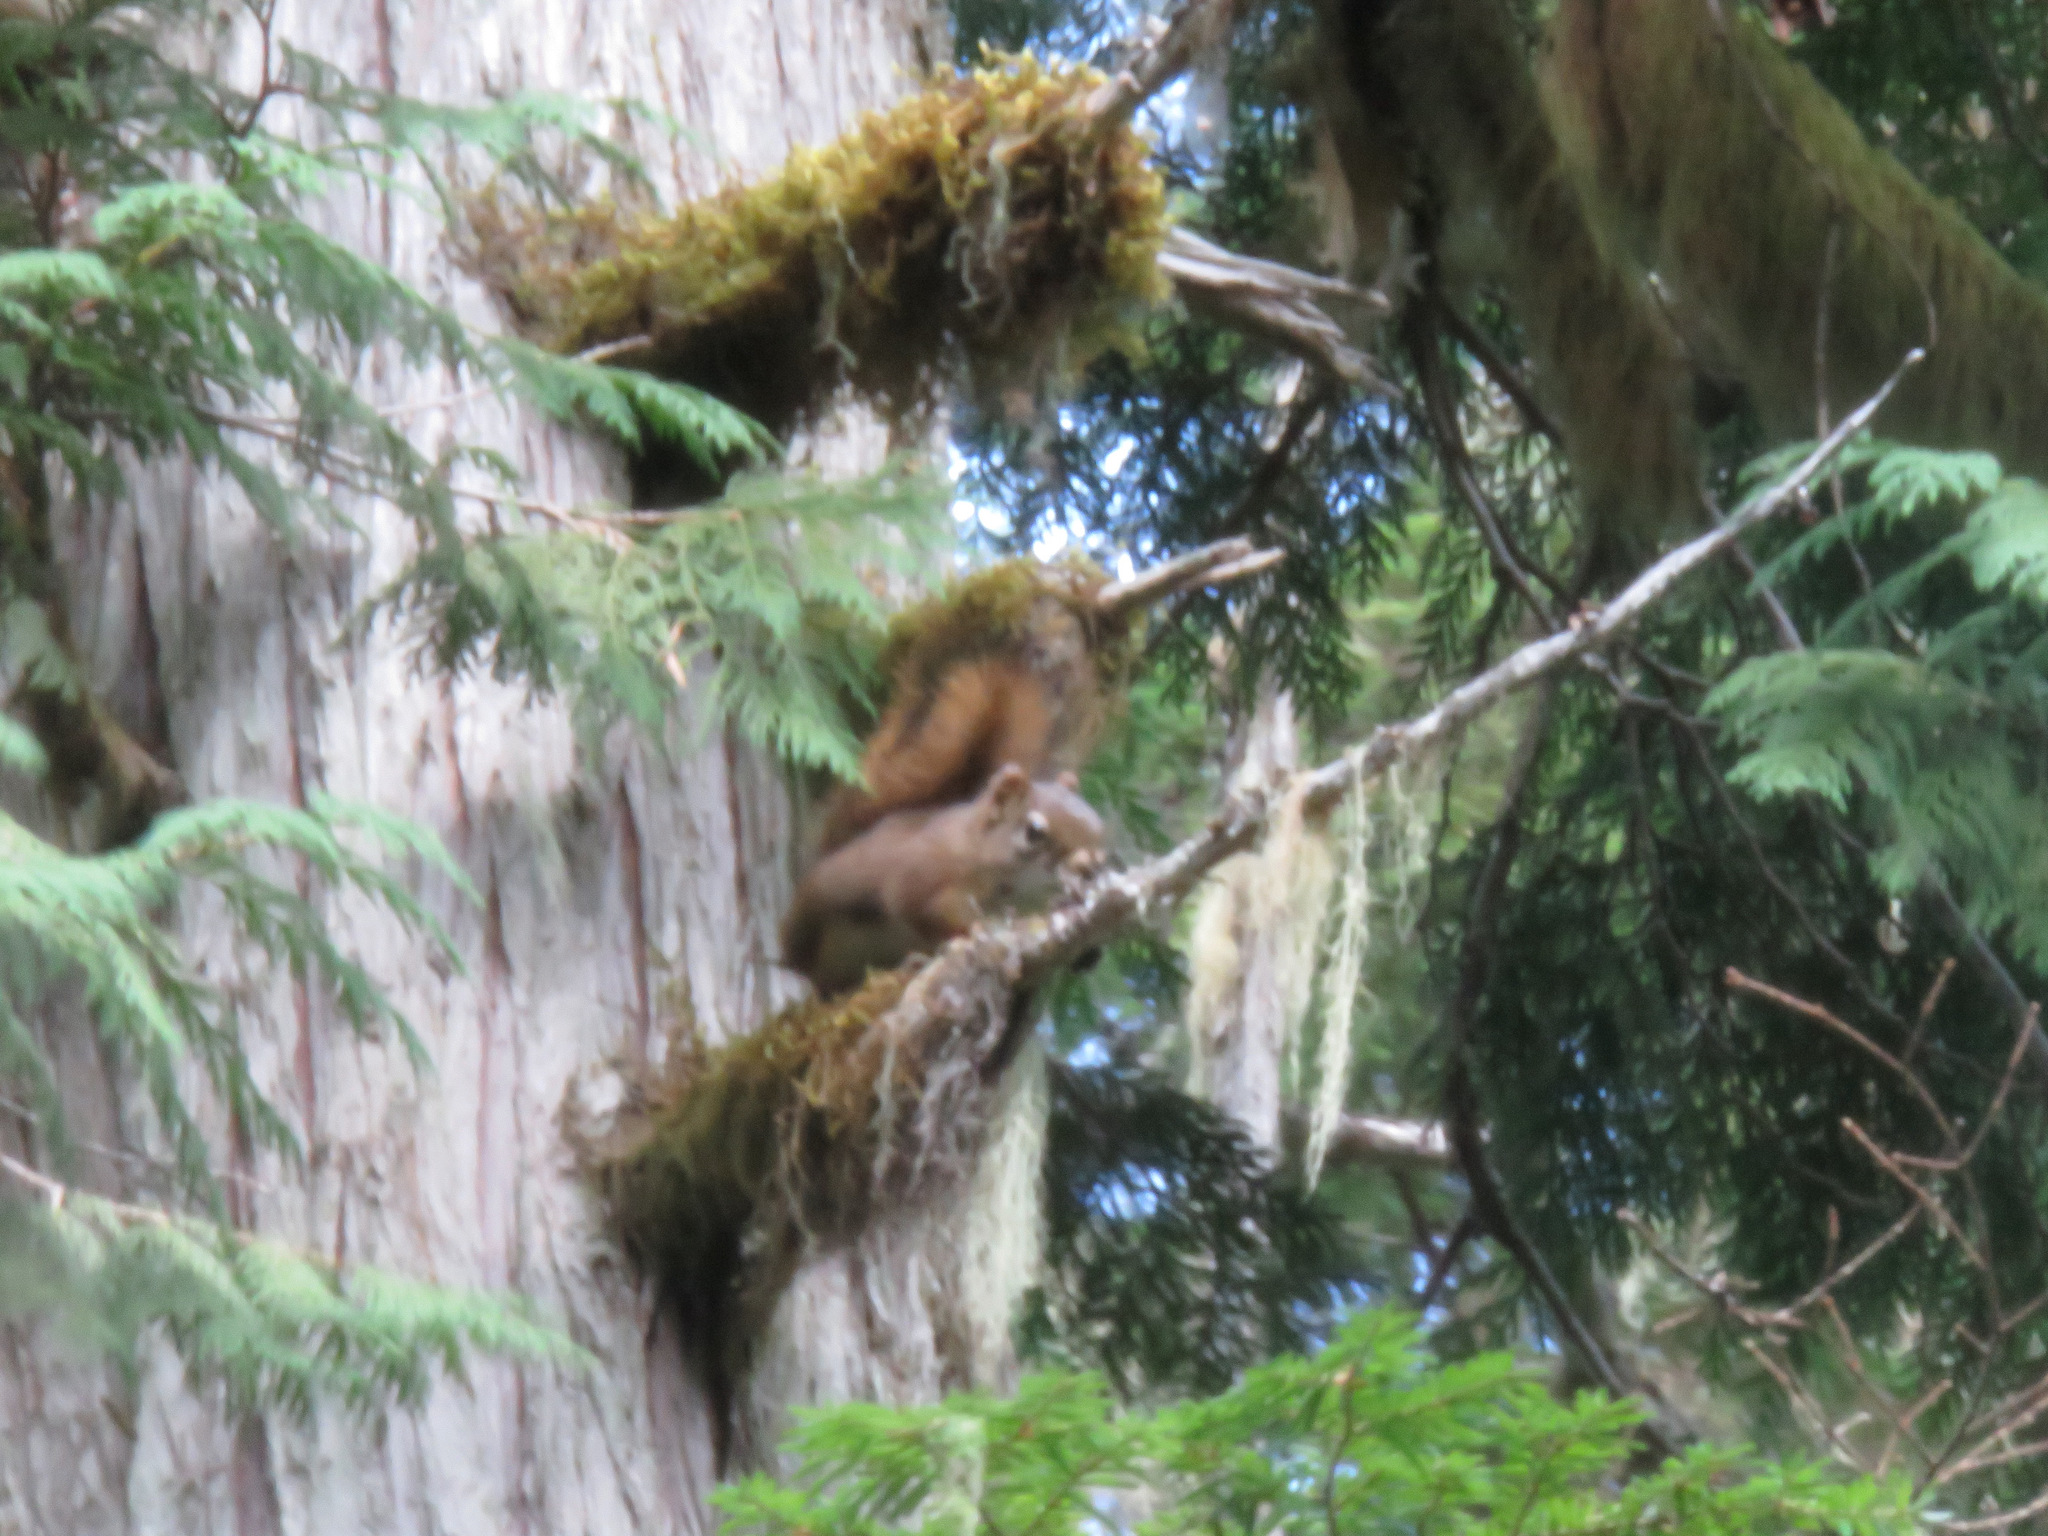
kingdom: Animalia
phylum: Chordata
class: Mammalia
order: Rodentia
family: Sciuridae
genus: Tamiasciurus
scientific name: Tamiasciurus hudsonicus
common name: Red squirrel
